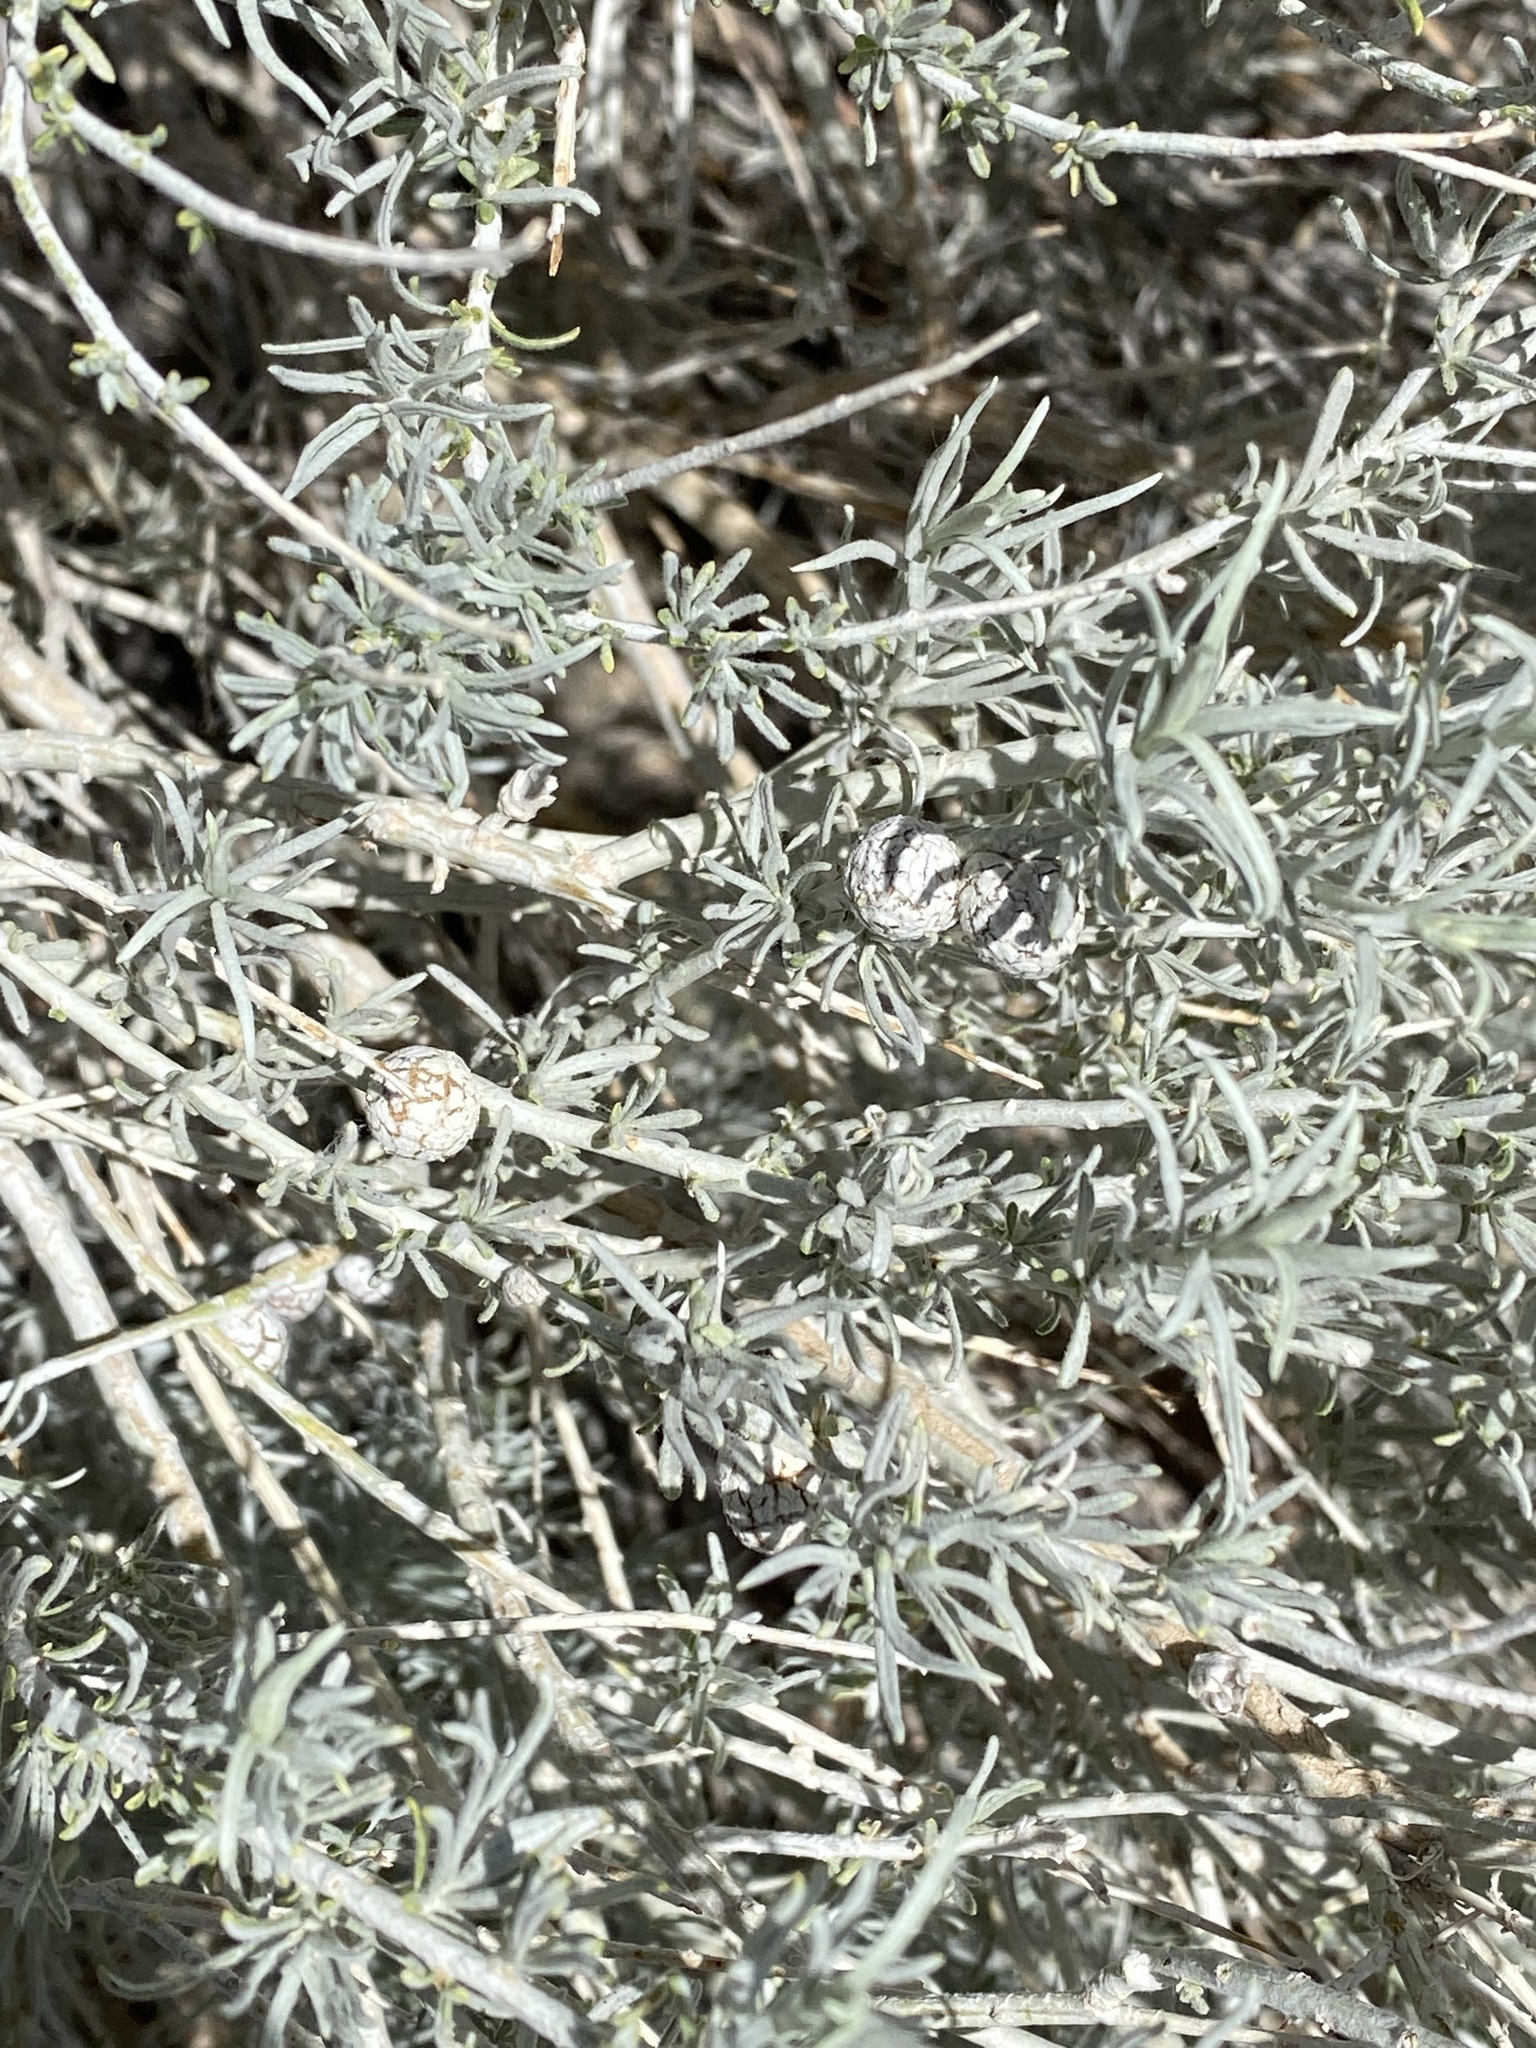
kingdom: Animalia
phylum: Arthropoda
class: Insecta
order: Diptera
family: Tephritidae
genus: Aciurina
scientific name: Aciurina trixa
